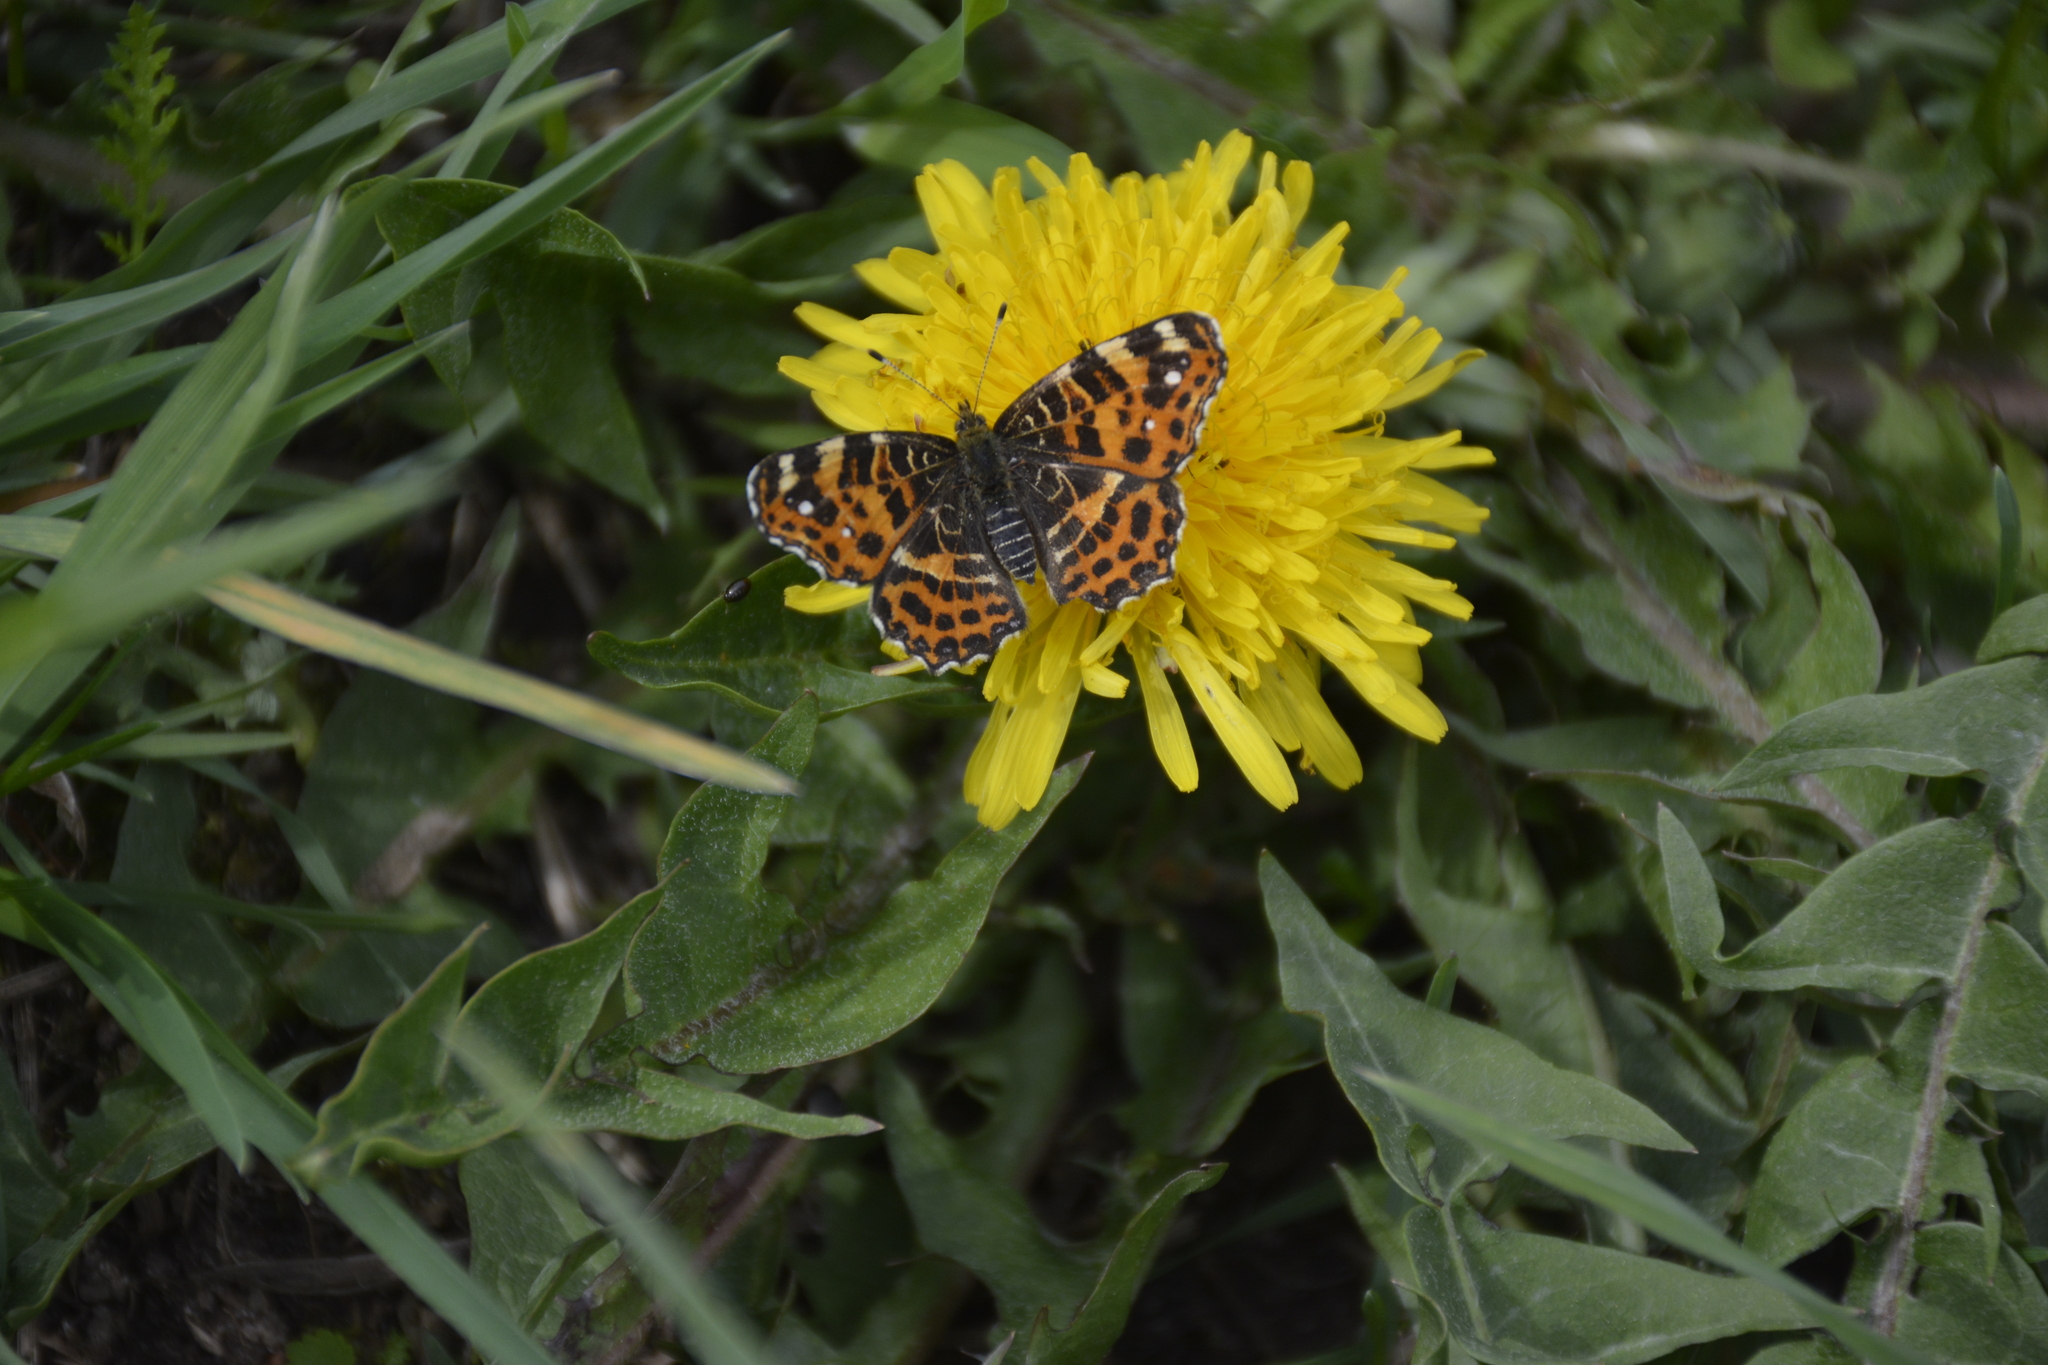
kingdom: Animalia
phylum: Arthropoda
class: Insecta
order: Lepidoptera
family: Nymphalidae
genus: Araschnia
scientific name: Araschnia levana
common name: Map butterfly
